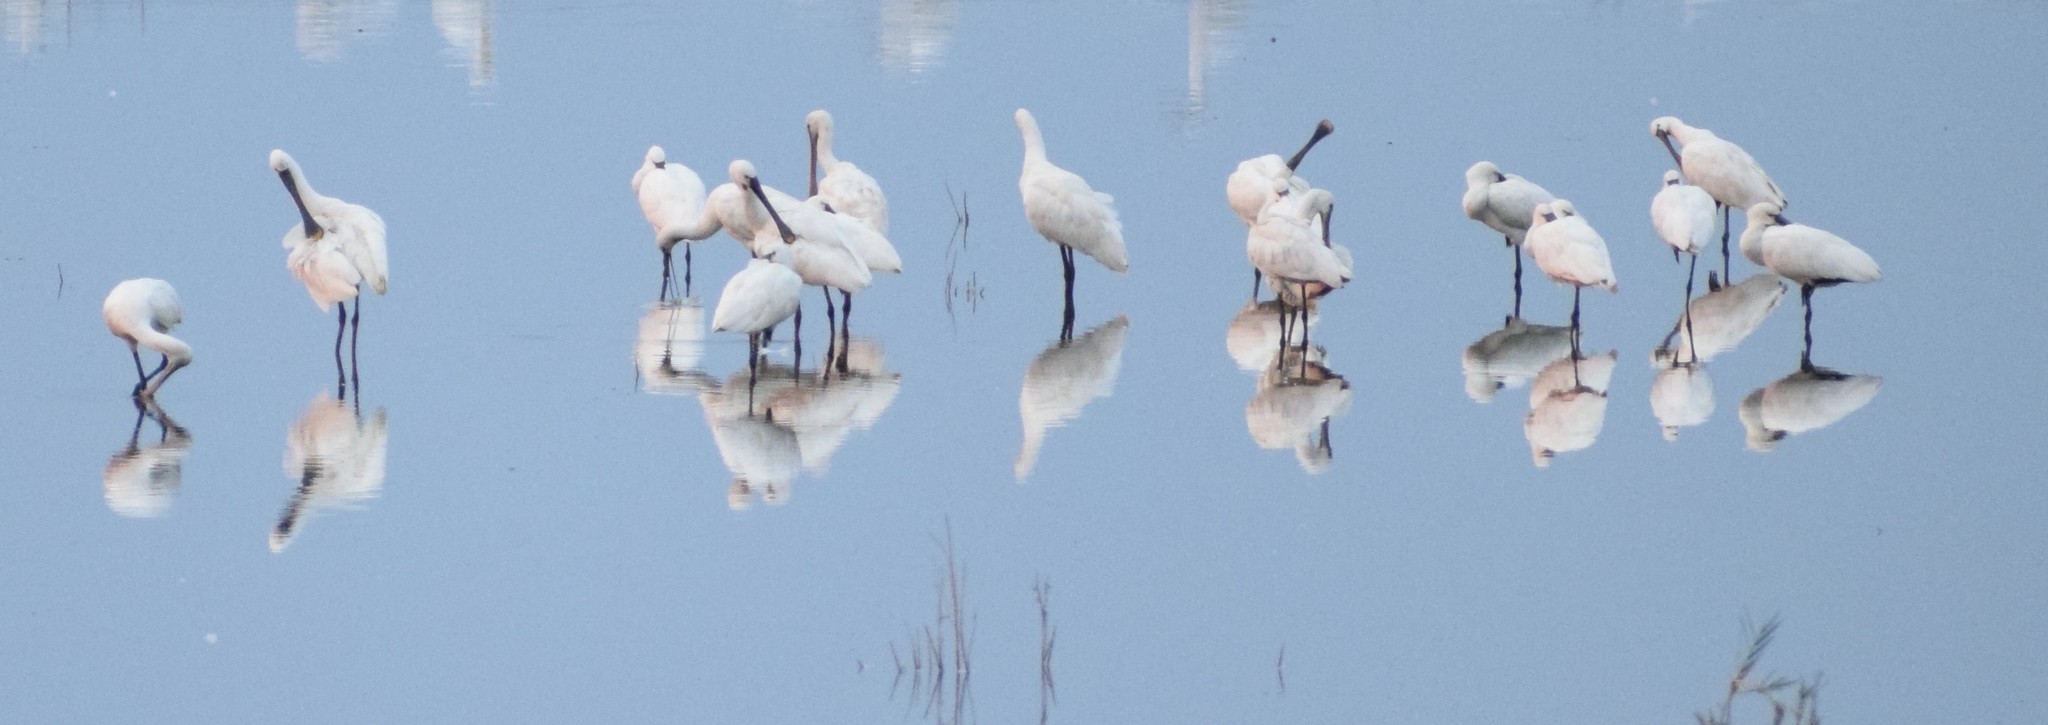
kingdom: Animalia
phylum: Chordata
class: Aves
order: Pelecaniformes
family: Threskiornithidae
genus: Platalea
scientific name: Platalea leucorodia
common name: Eurasian spoonbill
